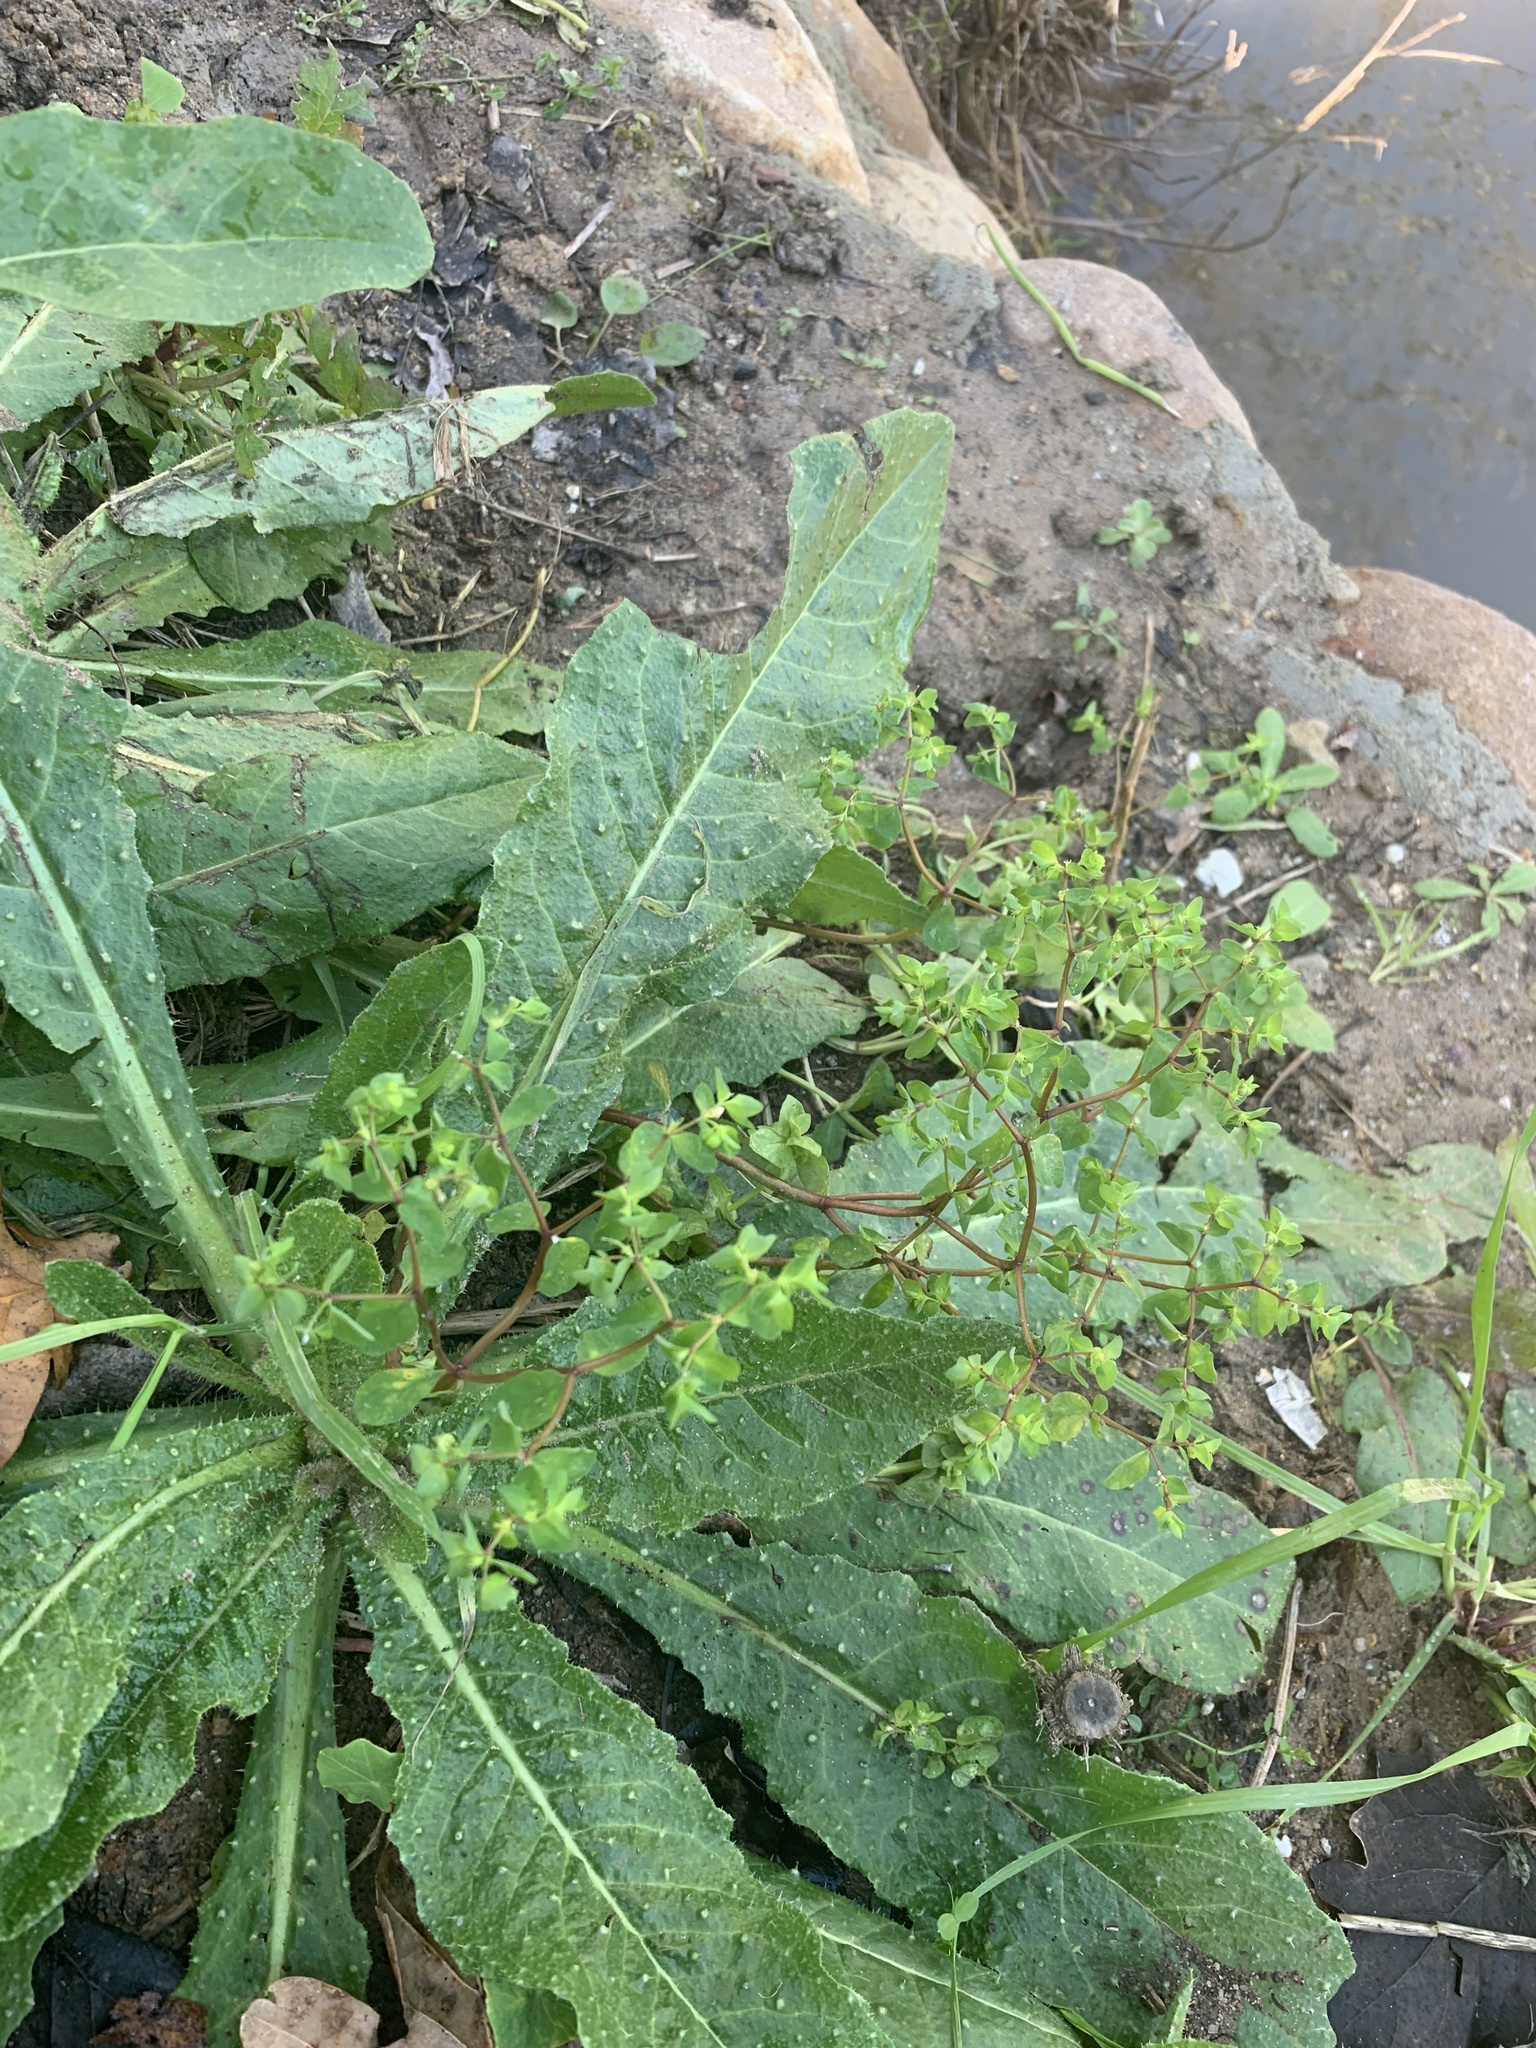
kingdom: Plantae
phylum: Tracheophyta
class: Magnoliopsida
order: Malpighiales
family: Euphorbiaceae
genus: Euphorbia
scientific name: Euphorbia peplus
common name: Petty spurge
